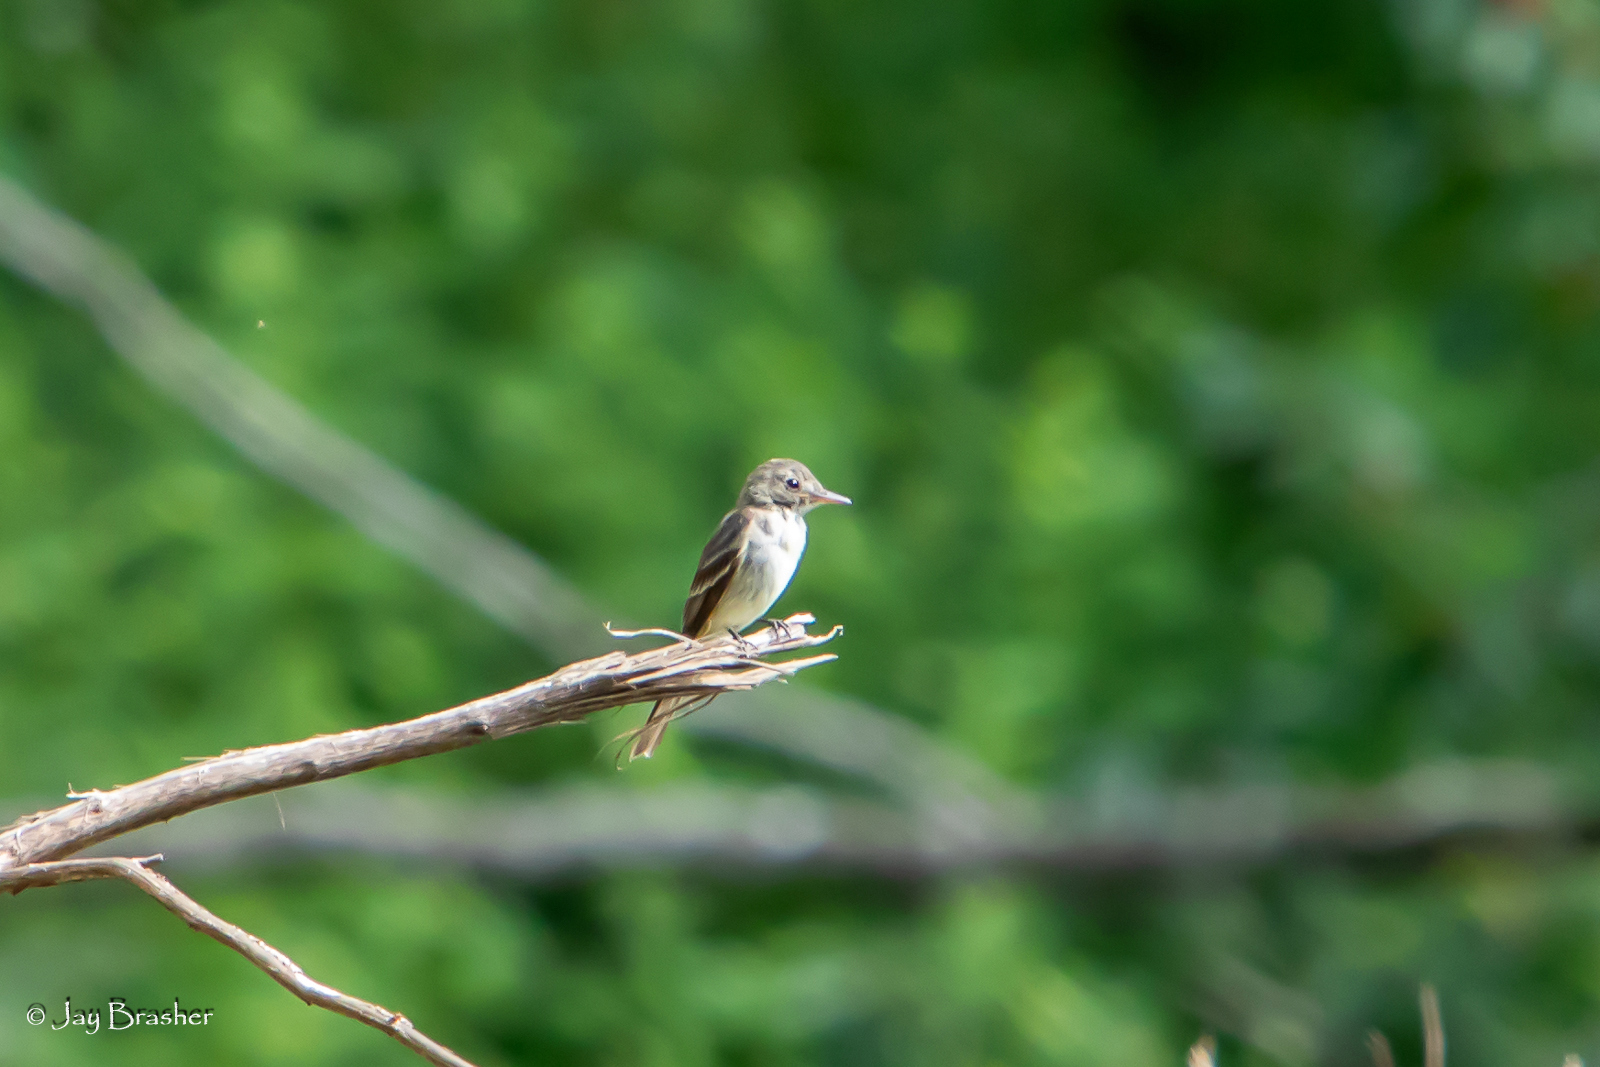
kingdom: Animalia
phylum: Chordata
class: Aves
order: Passeriformes
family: Tyrannidae
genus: Contopus
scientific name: Contopus virens
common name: Eastern wood-pewee
